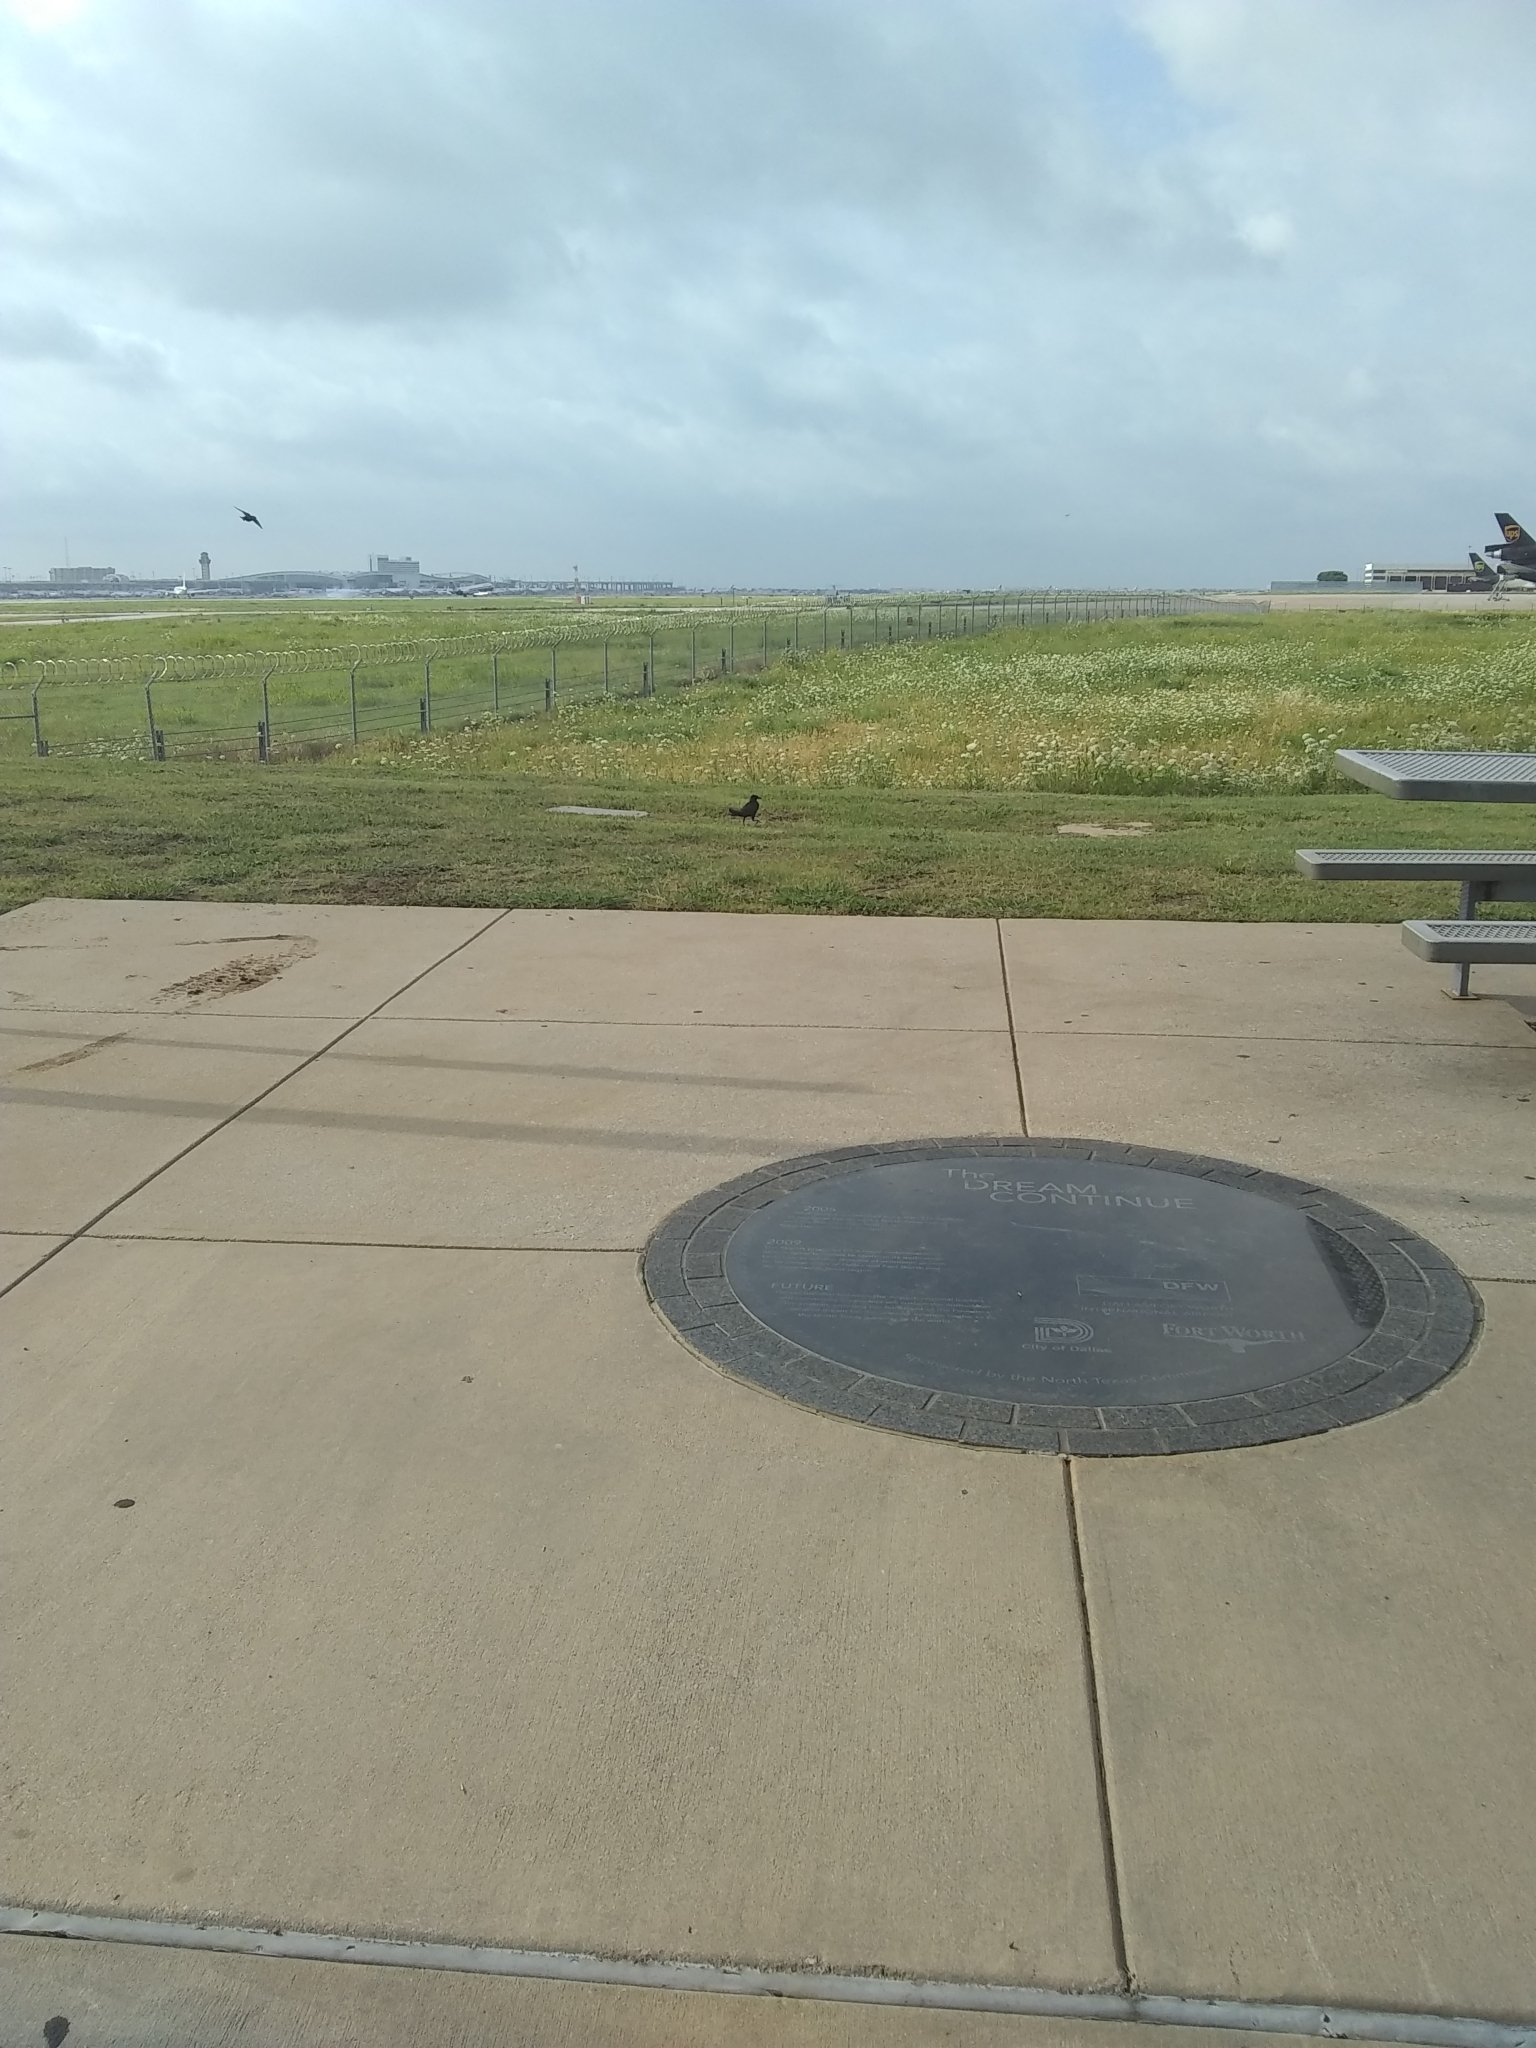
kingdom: Animalia
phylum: Chordata
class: Aves
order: Passeriformes
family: Icteridae
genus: Quiscalus
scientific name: Quiscalus mexicanus
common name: Great-tailed grackle
